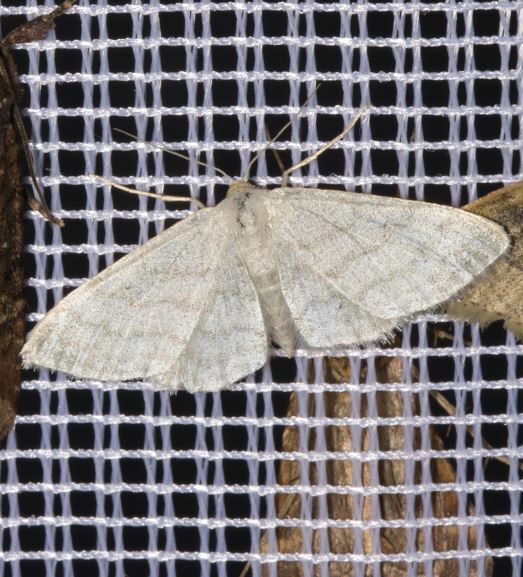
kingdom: Animalia
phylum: Arthropoda
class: Insecta
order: Lepidoptera
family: Geometridae
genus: Idaea
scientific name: Idaea subsericeata
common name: Satin wave
